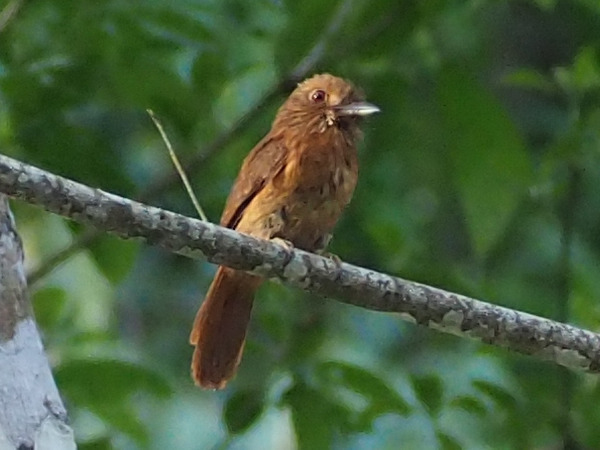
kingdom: Animalia
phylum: Chordata
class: Aves
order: Piciformes
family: Bucconidae
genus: Malacoptila
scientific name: Malacoptila panamensis
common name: White-whiskered puffbird
